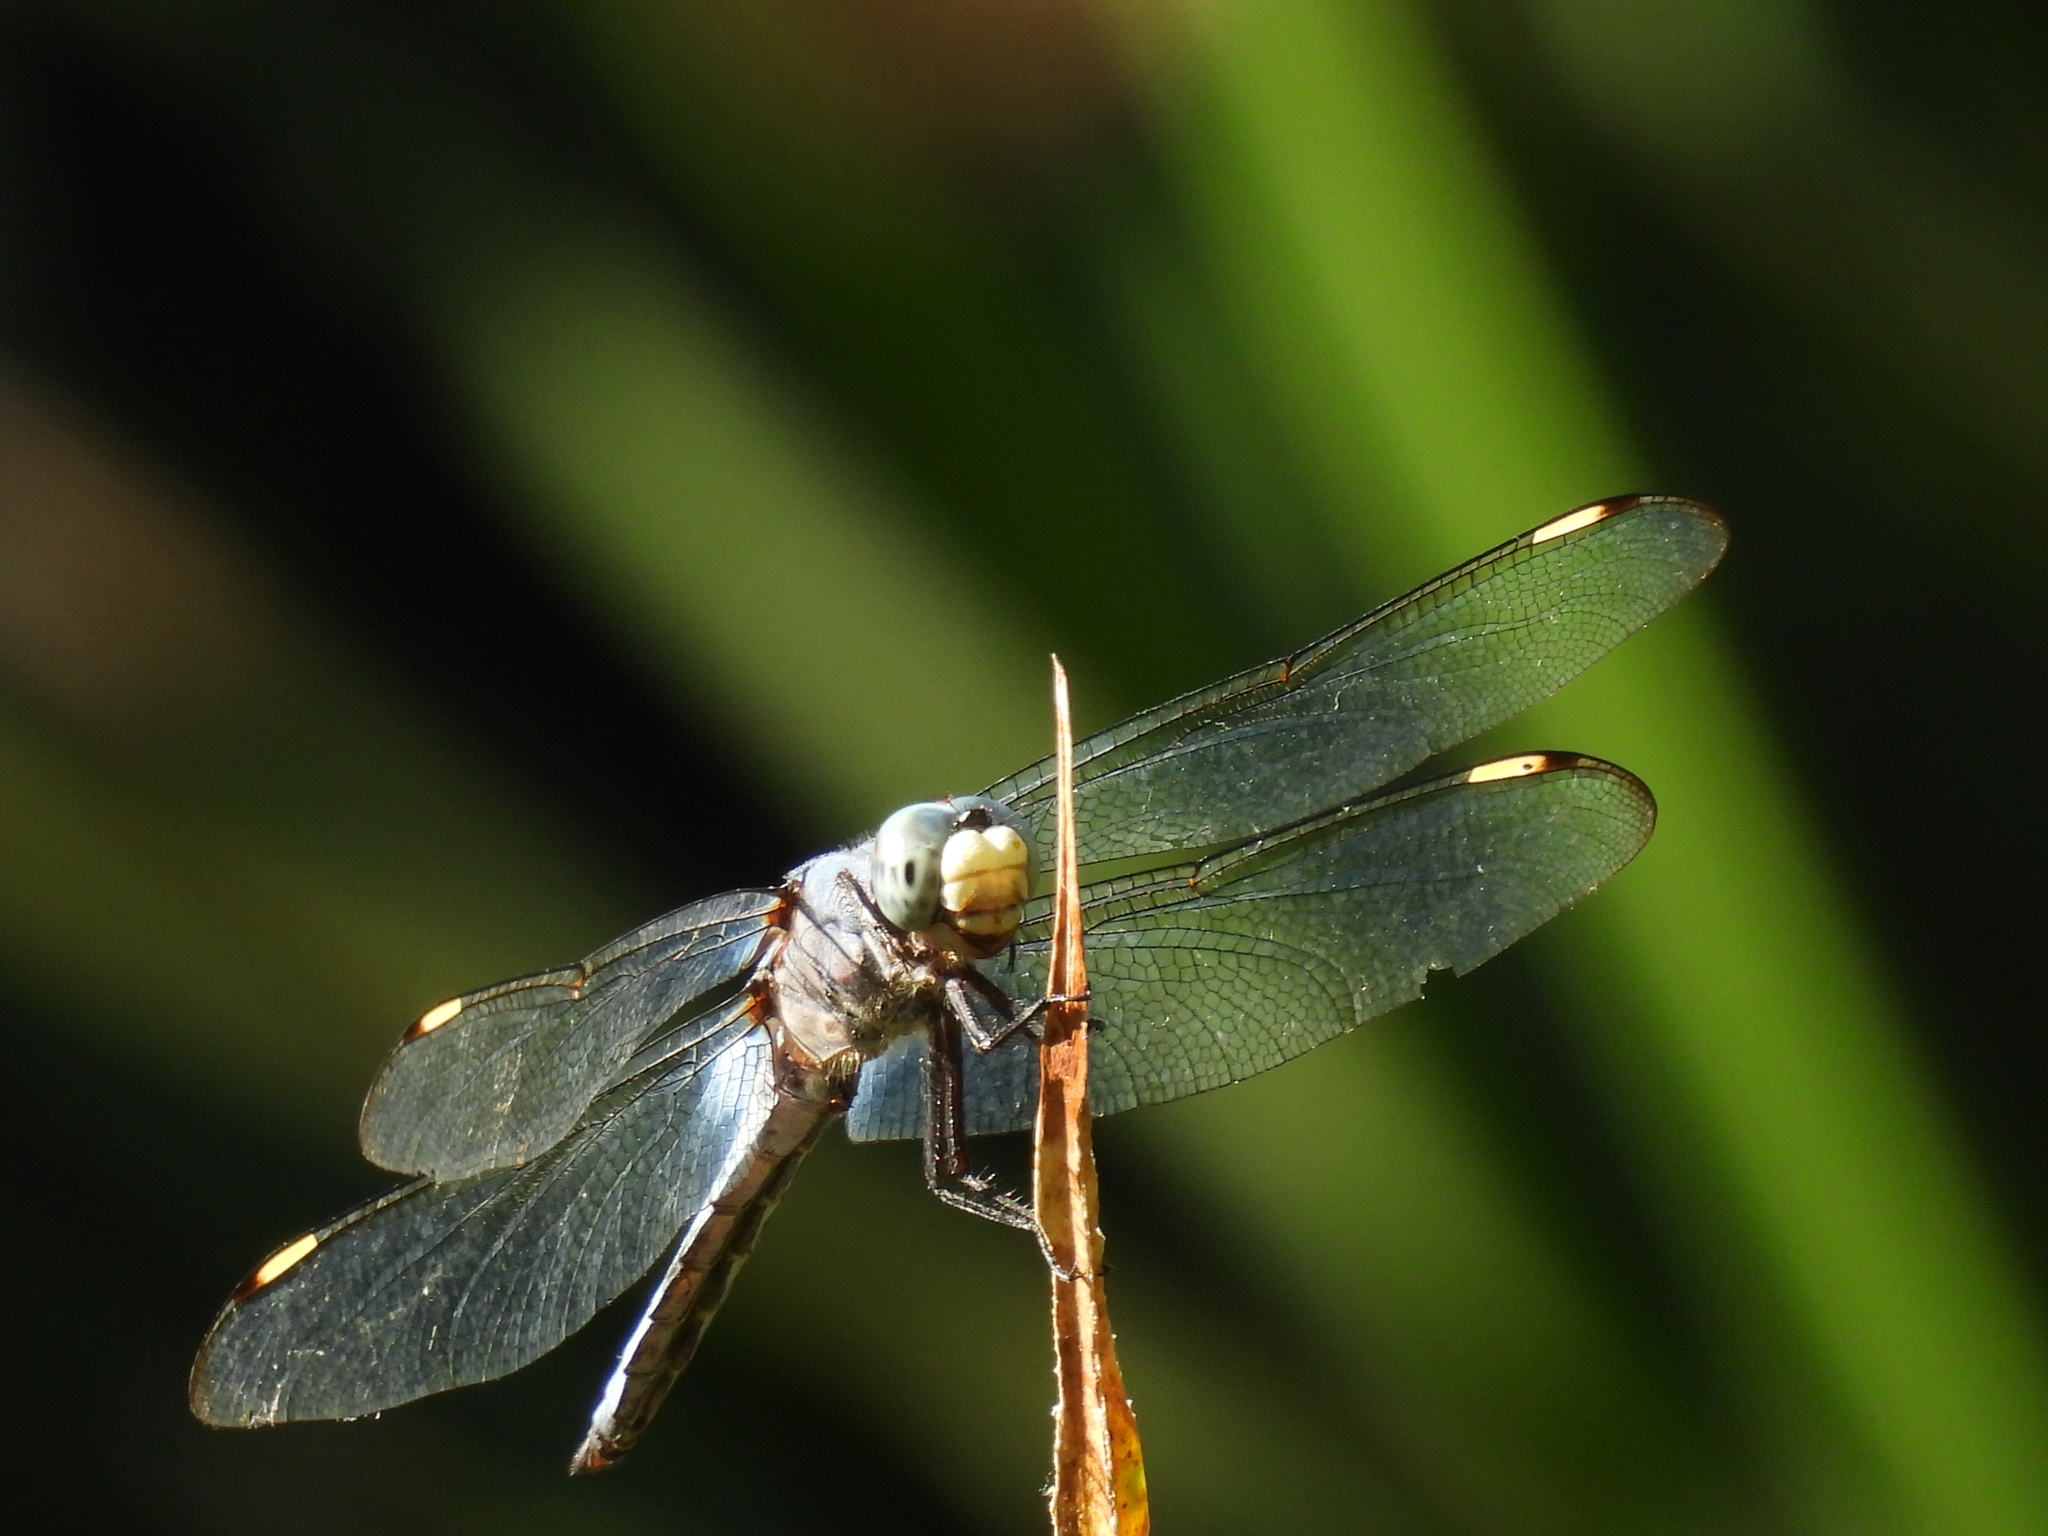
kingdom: Animalia
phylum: Arthropoda
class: Insecta
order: Odonata
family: Libellulidae
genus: Libellula
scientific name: Libellula comanche
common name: Comanche skimmer
